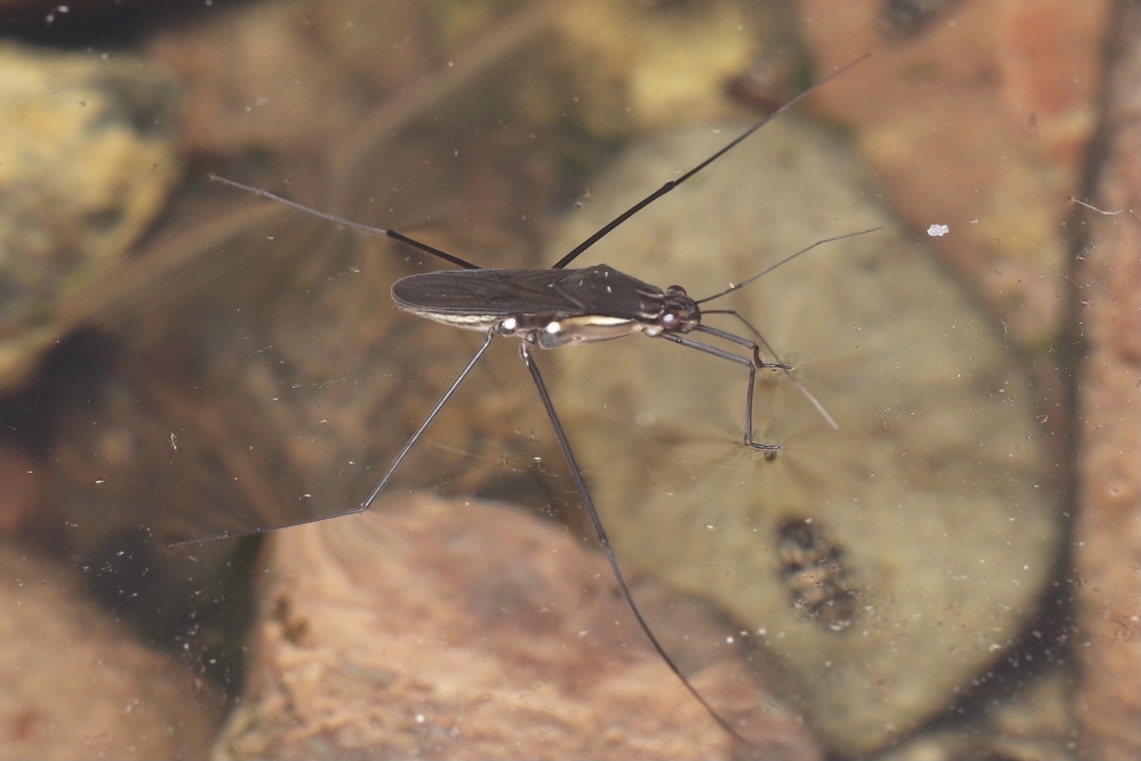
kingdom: Animalia
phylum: Arthropoda
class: Insecta
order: Hemiptera
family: Gerridae
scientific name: Gerridae
